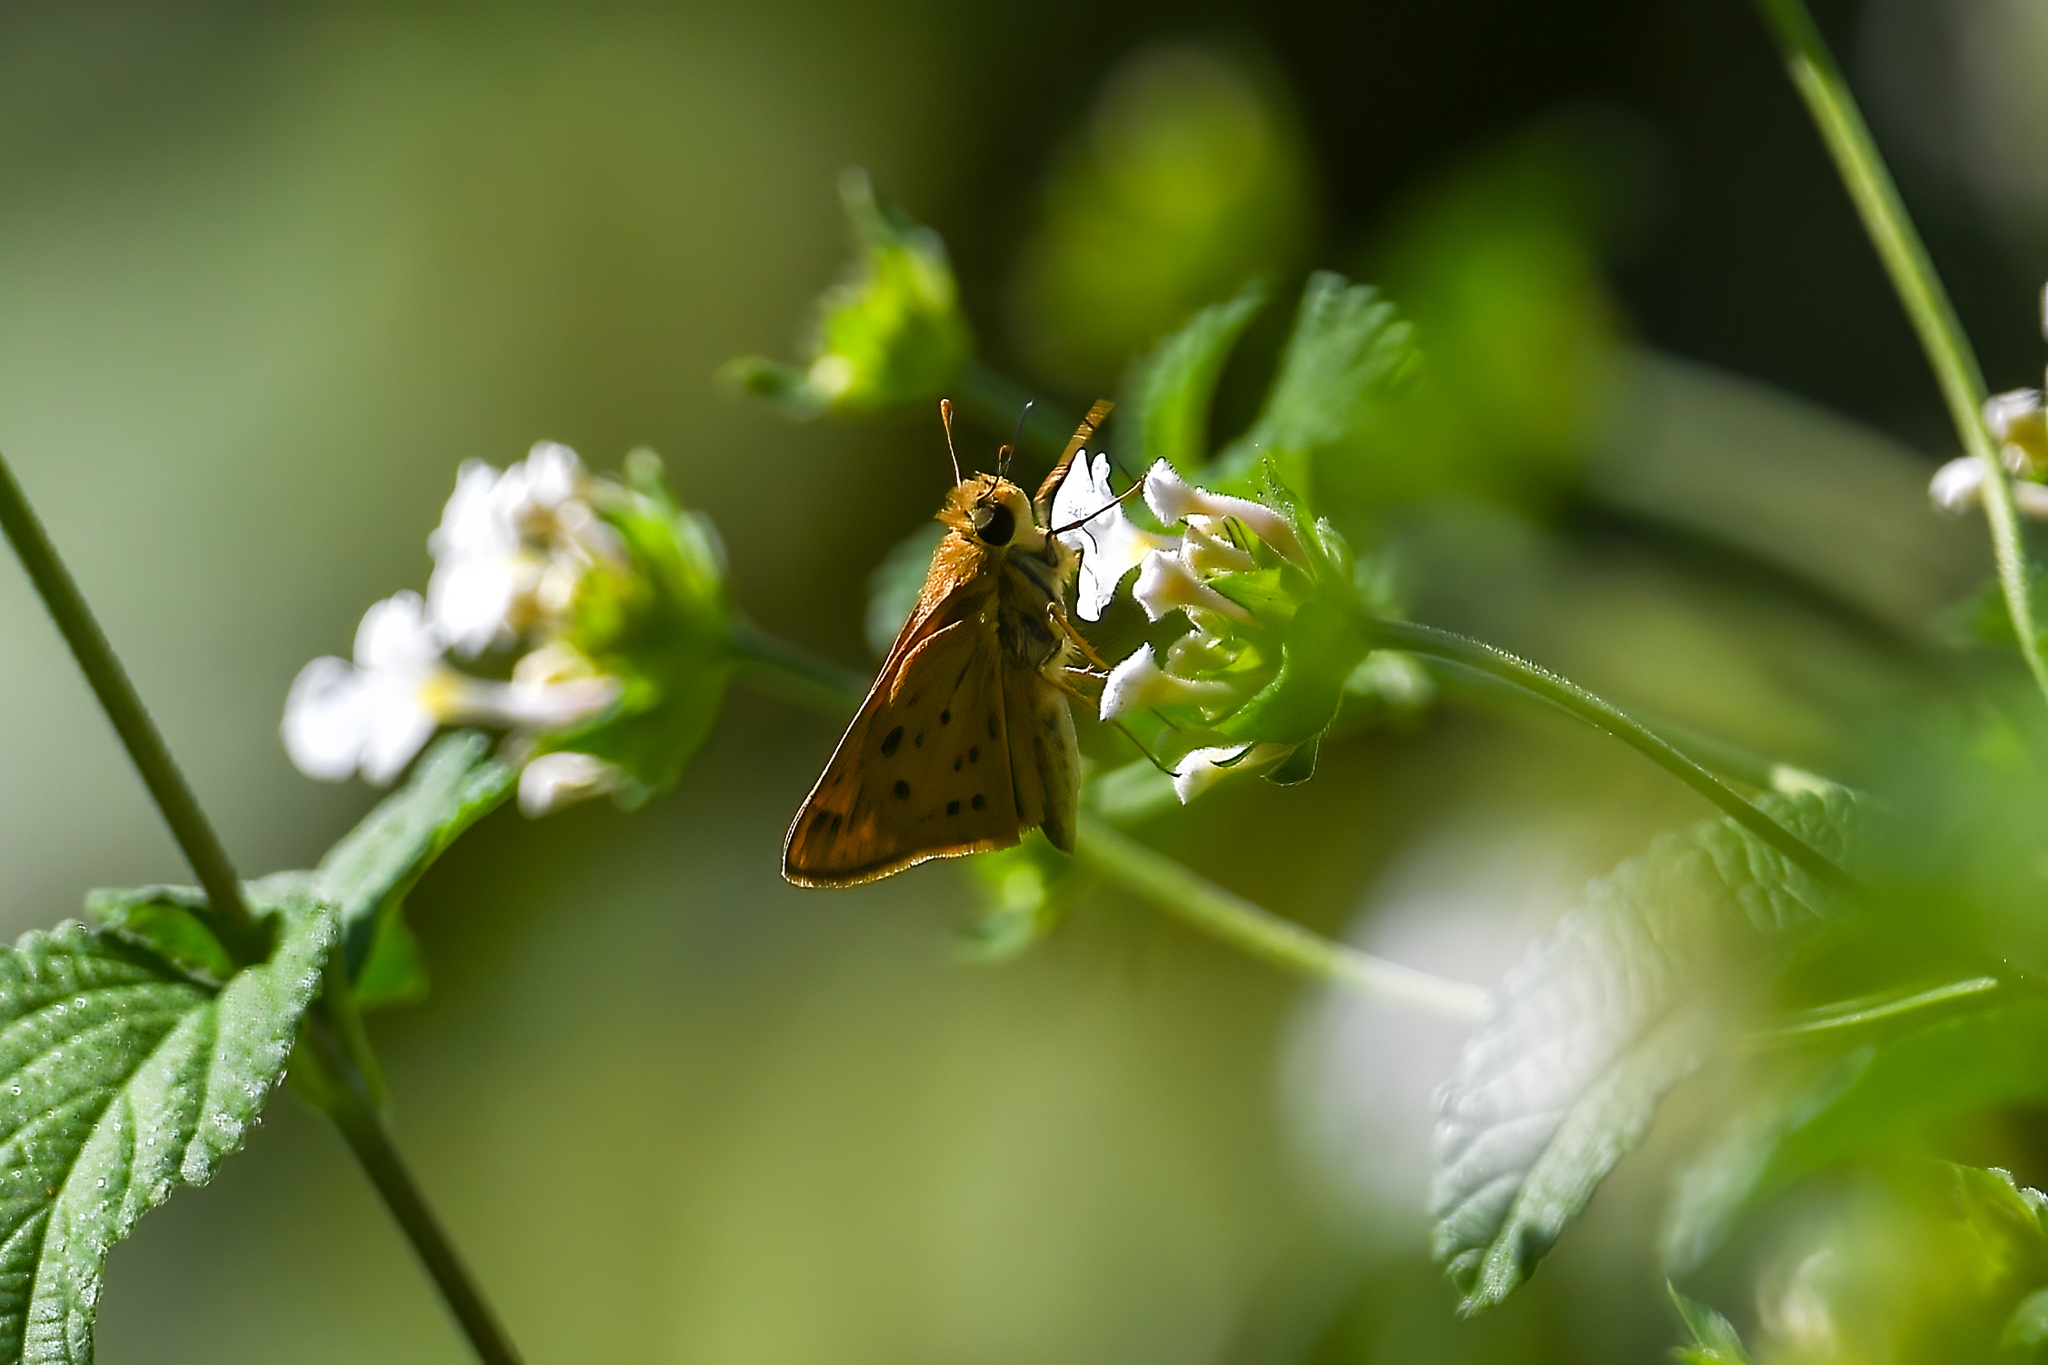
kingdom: Animalia
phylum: Arthropoda
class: Insecta
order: Lepidoptera
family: Hesperiidae
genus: Hylephila
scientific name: Hylephila phyleus
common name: Fiery skipper
